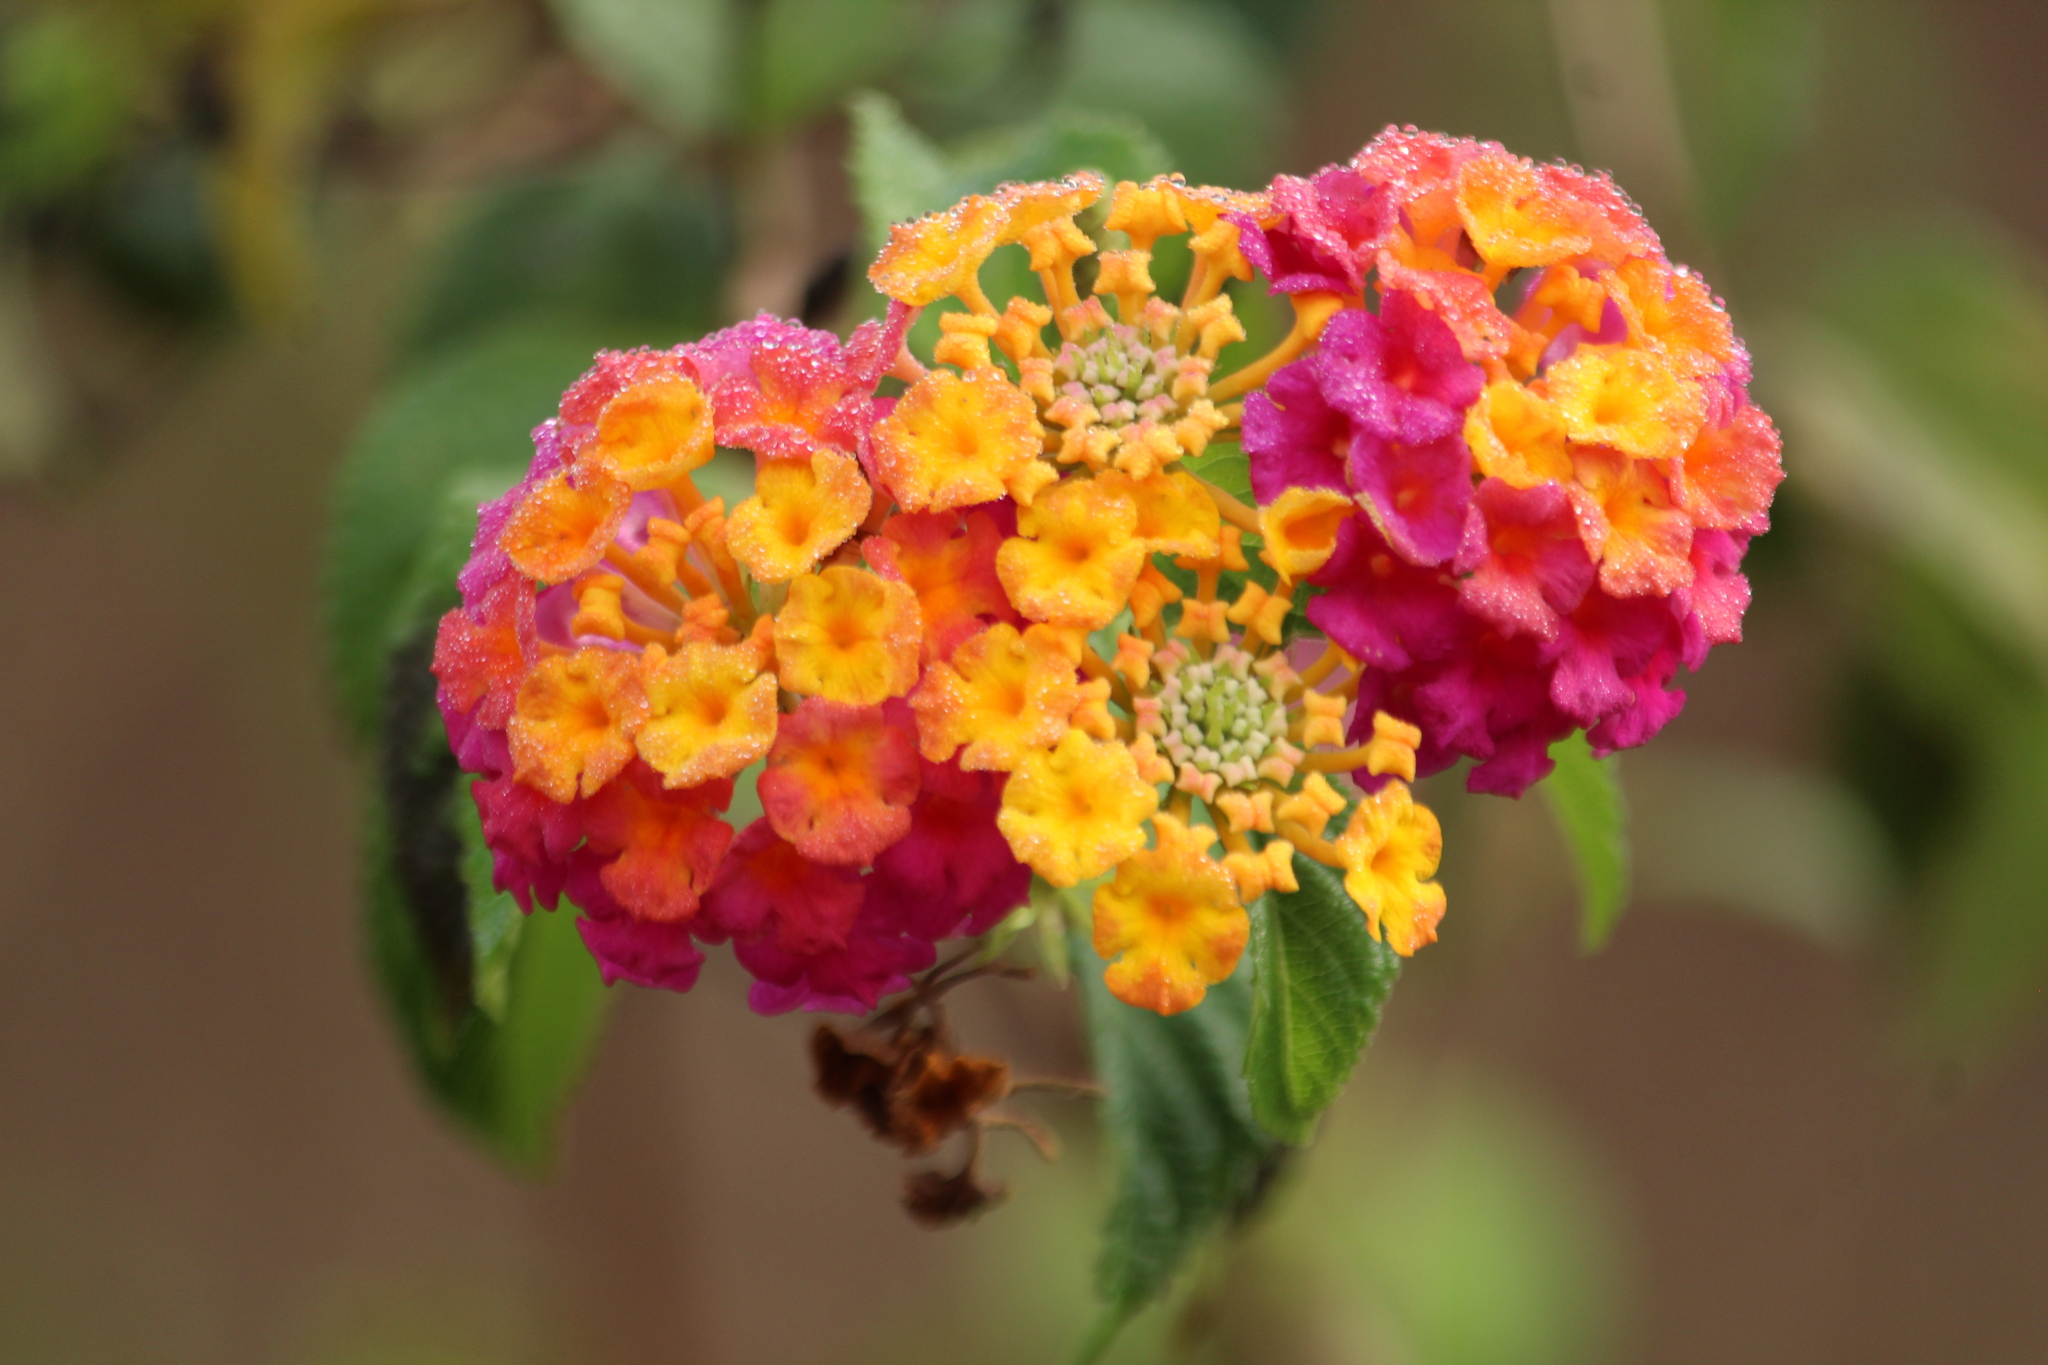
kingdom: Plantae
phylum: Tracheophyta
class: Magnoliopsida
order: Lamiales
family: Verbenaceae
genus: Lantana
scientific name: Lantana camara
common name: Lantana
